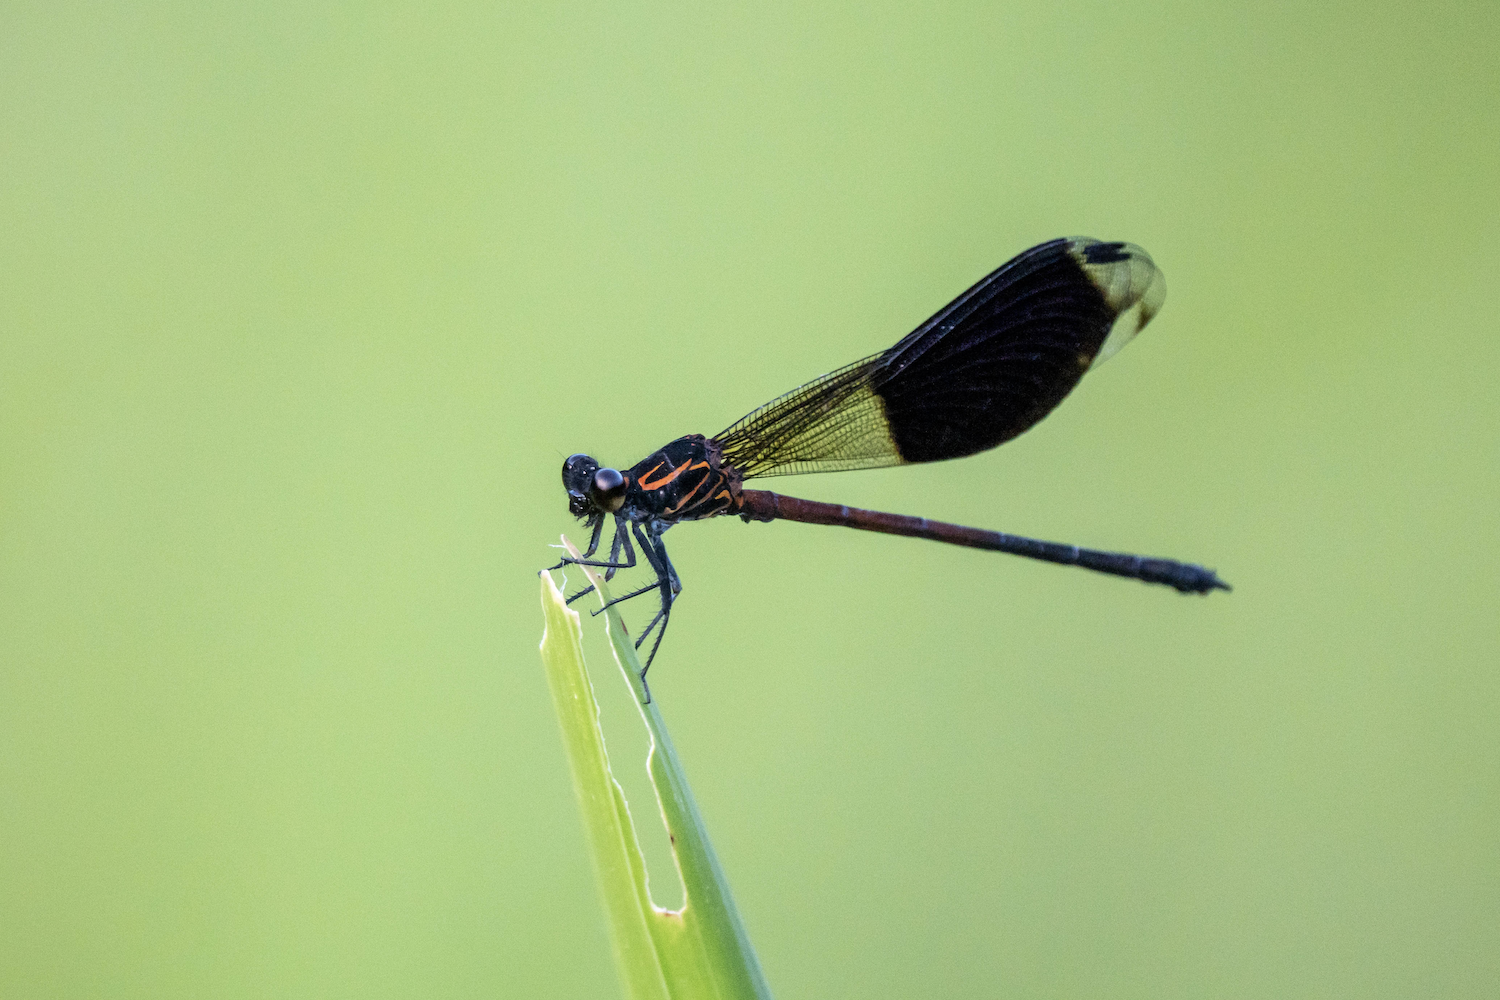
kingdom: Animalia
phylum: Arthropoda
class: Insecta
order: Odonata
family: Euphaeidae
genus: Euphaea
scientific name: Euphaea formosa
